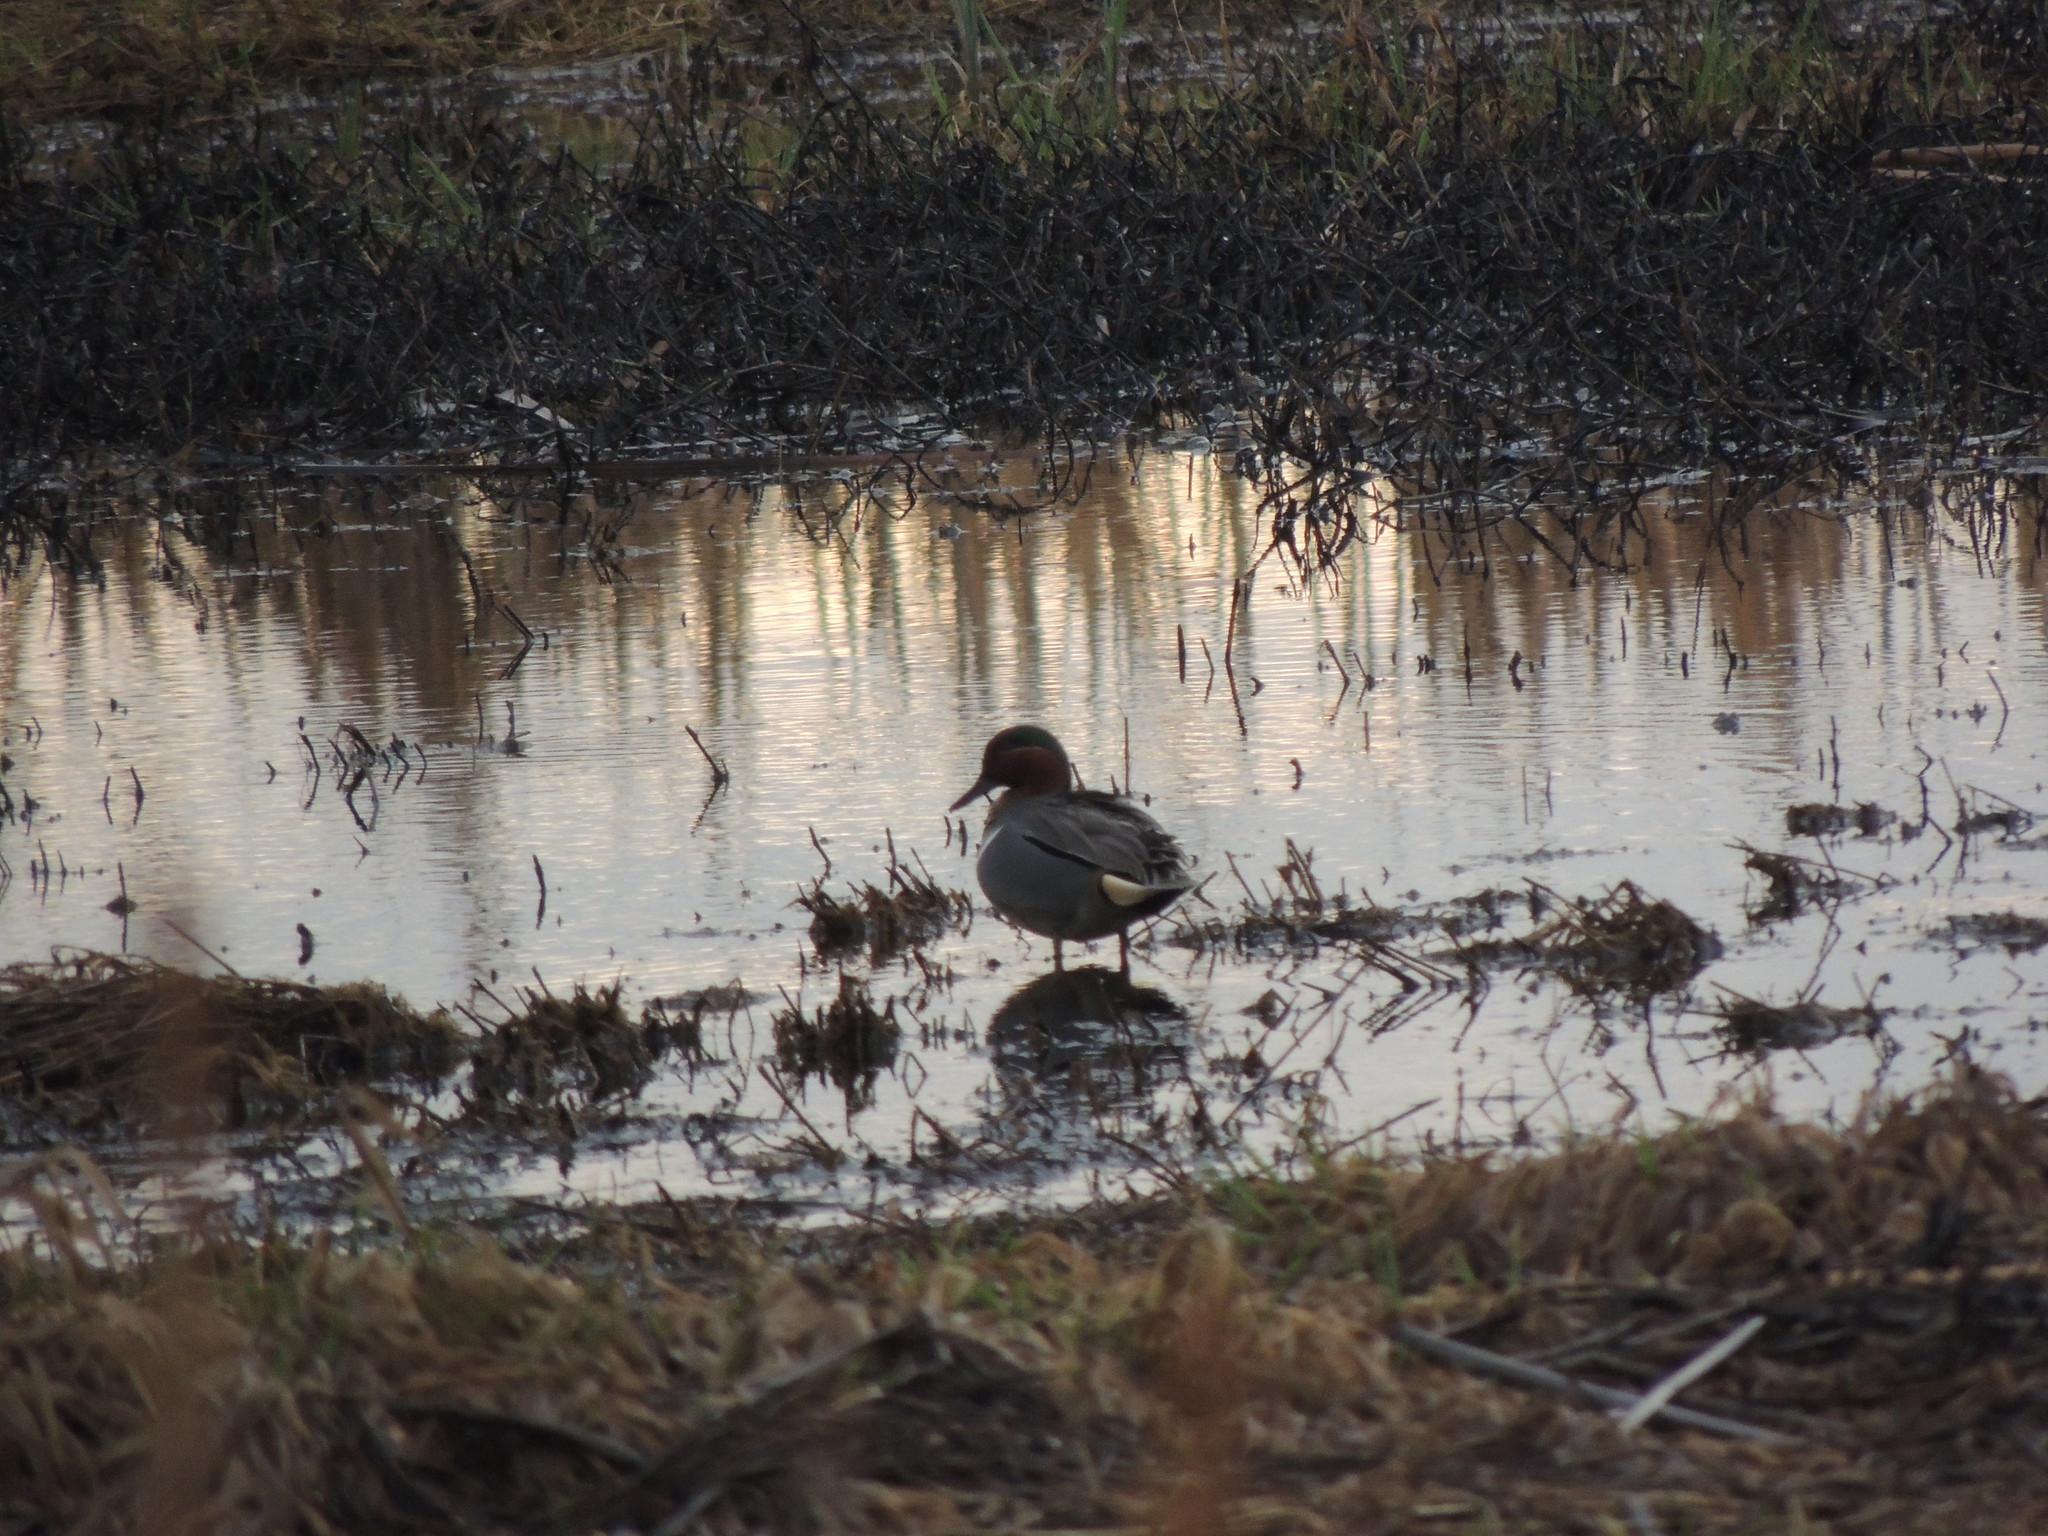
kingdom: Animalia
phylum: Chordata
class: Aves
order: Anseriformes
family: Anatidae
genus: Anas
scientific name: Anas crecca
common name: Eurasian teal
